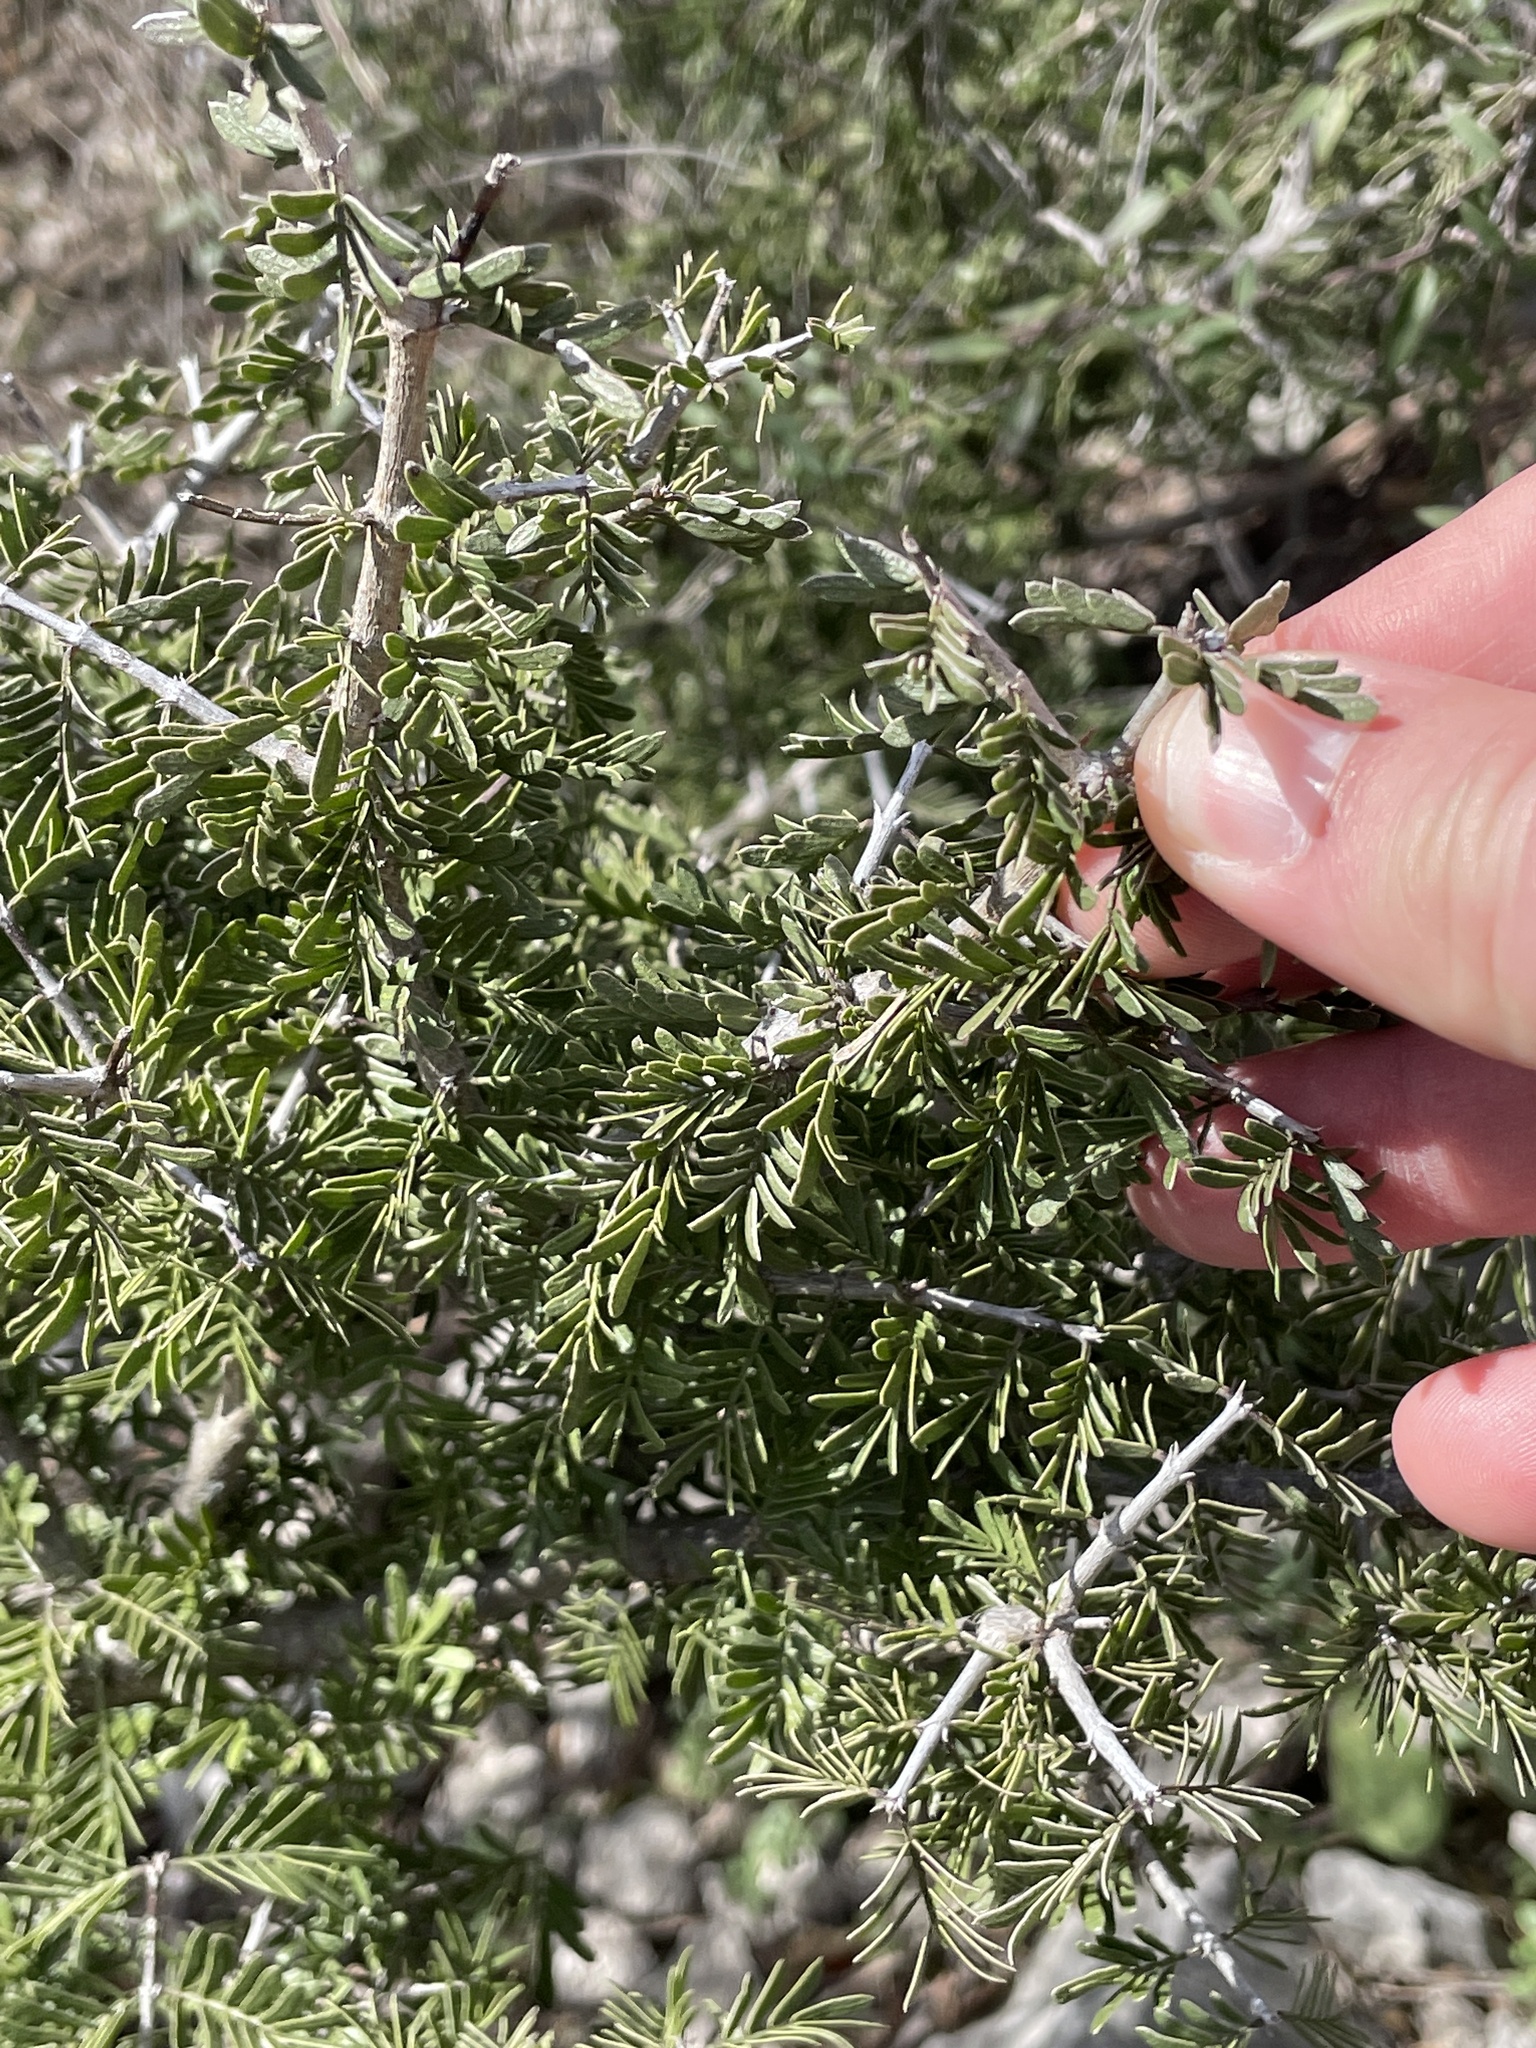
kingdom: Plantae
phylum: Tracheophyta
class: Magnoliopsida
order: Zygophyllales
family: Zygophyllaceae
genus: Porlieria
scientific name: Porlieria angustifolia
